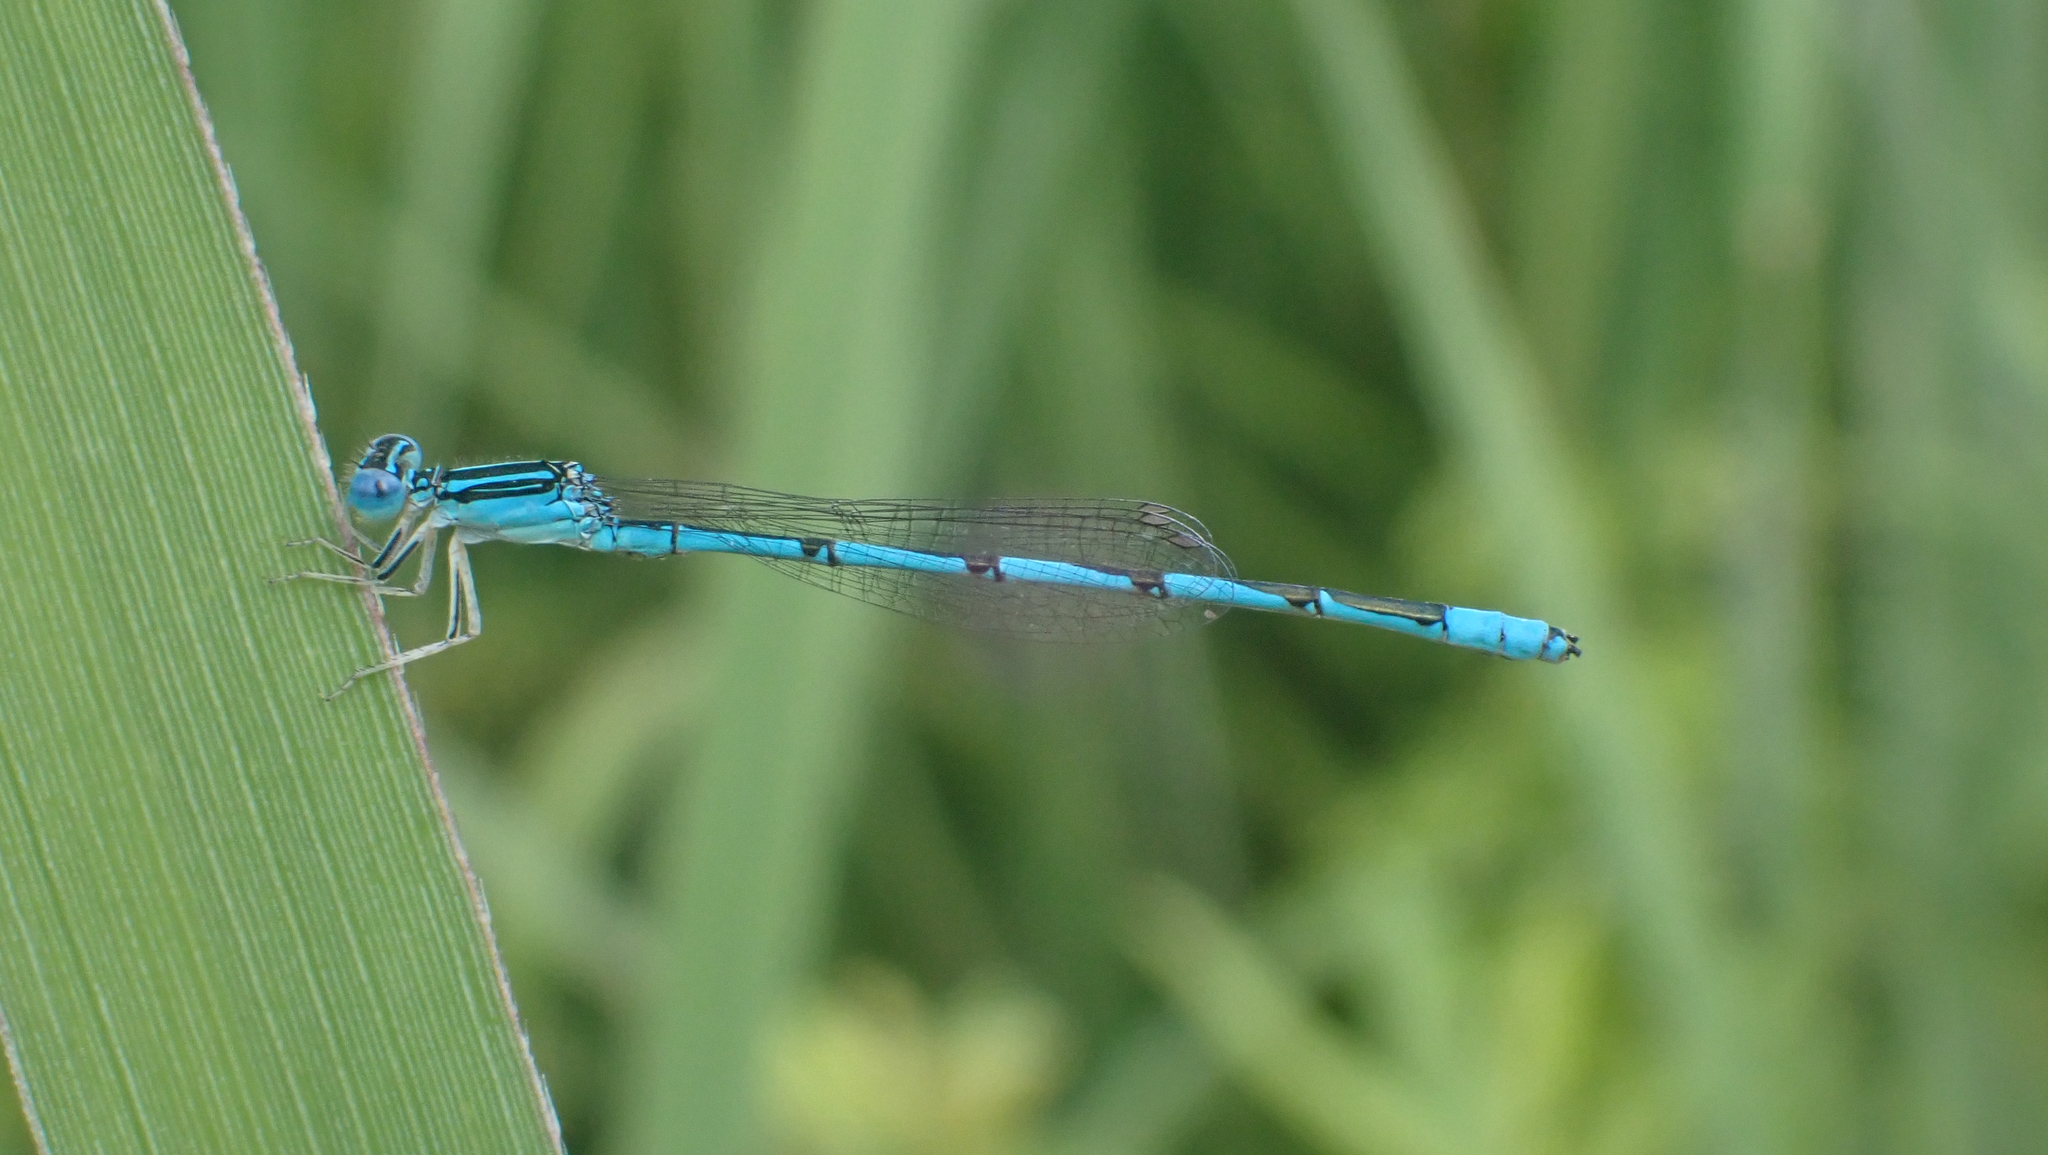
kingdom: Animalia
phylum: Arthropoda
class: Insecta
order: Odonata
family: Coenagrionidae
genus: Enallagma
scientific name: Enallagma basidens
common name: Double-striped bluet
